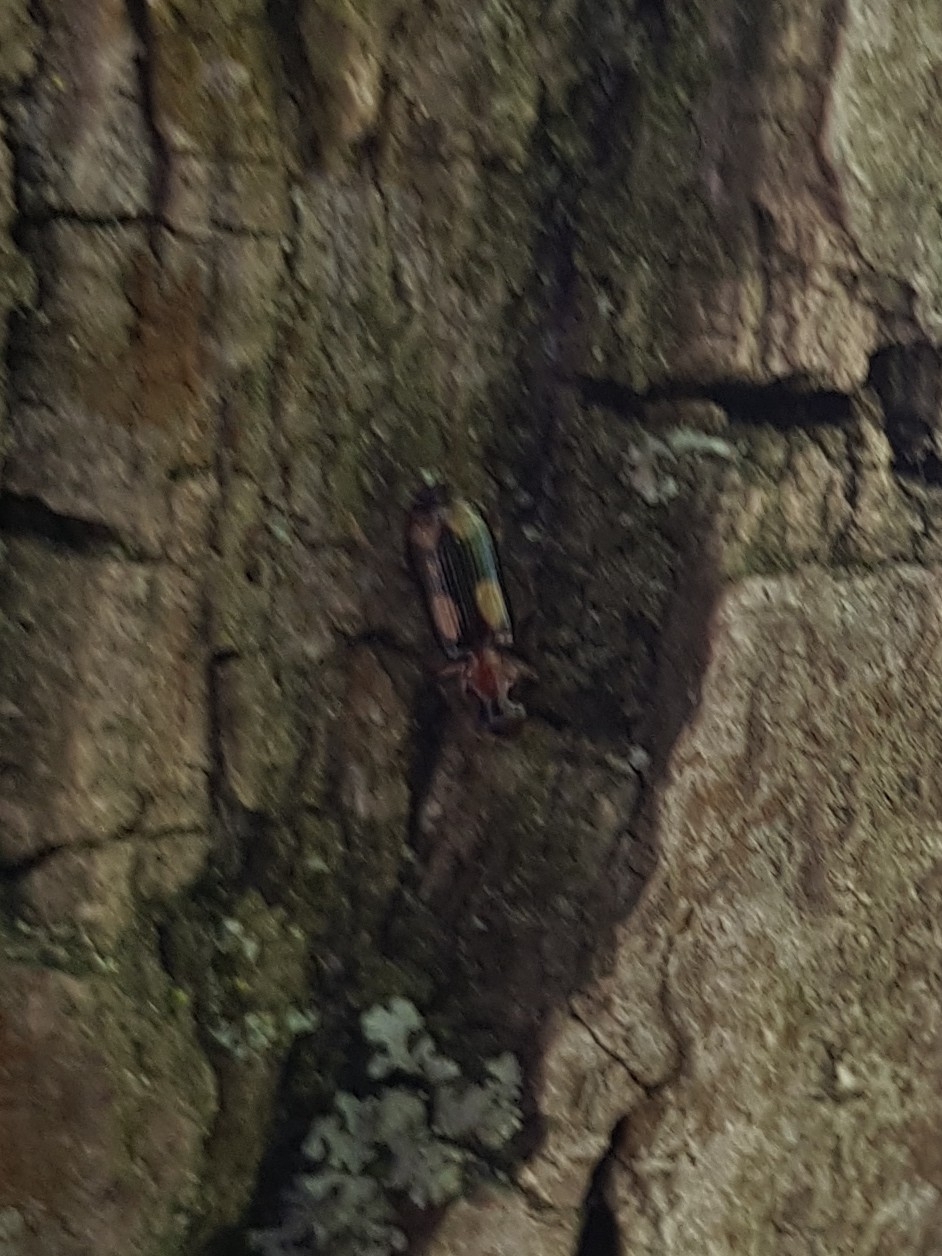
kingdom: Animalia
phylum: Arthropoda
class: Insecta
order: Coleoptera
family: Carabidae
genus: Dromius
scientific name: Dromius quadrimaculatus
